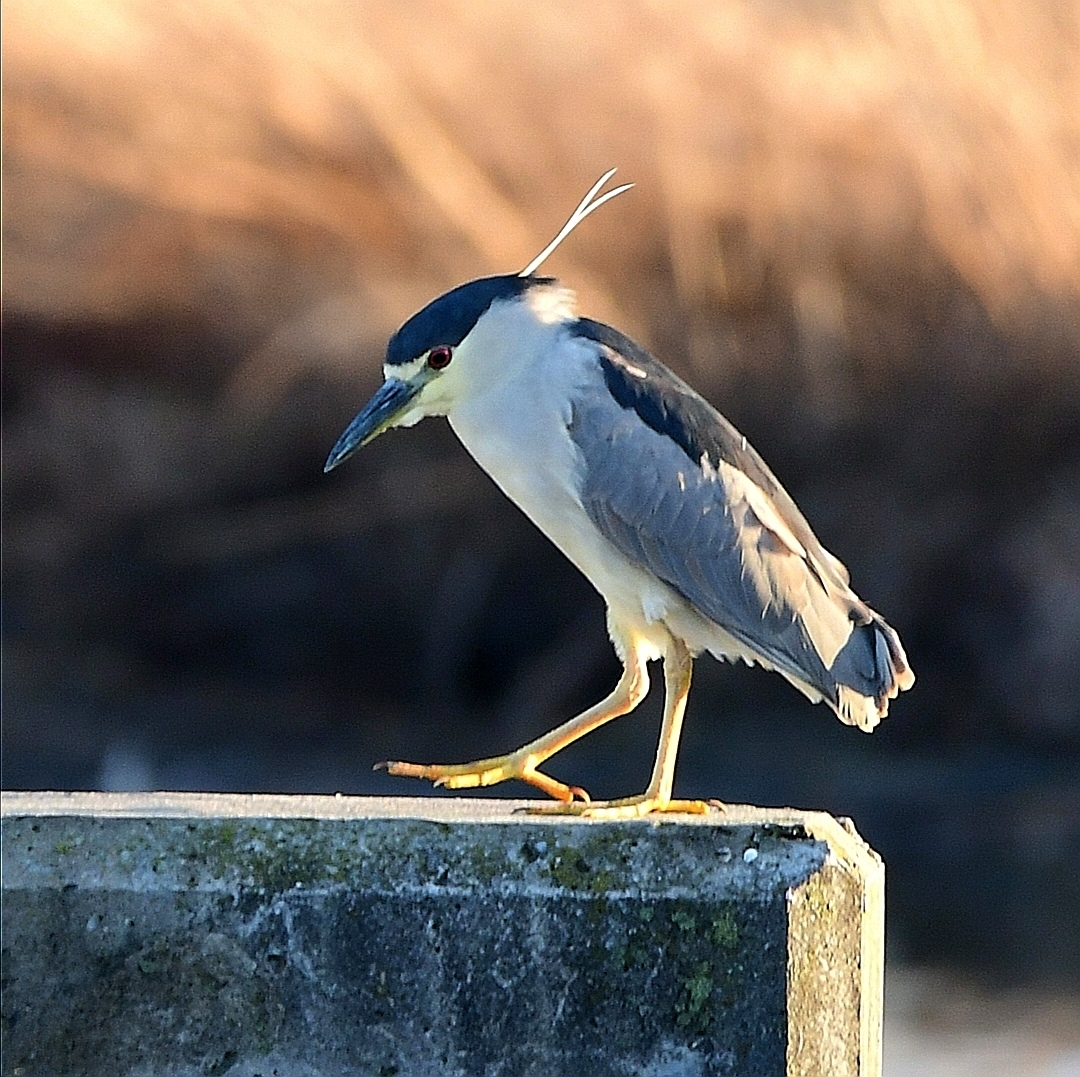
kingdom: Animalia
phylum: Chordata
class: Aves
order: Pelecaniformes
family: Ardeidae
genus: Nycticorax
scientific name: Nycticorax nycticorax
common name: Black-crowned night heron
